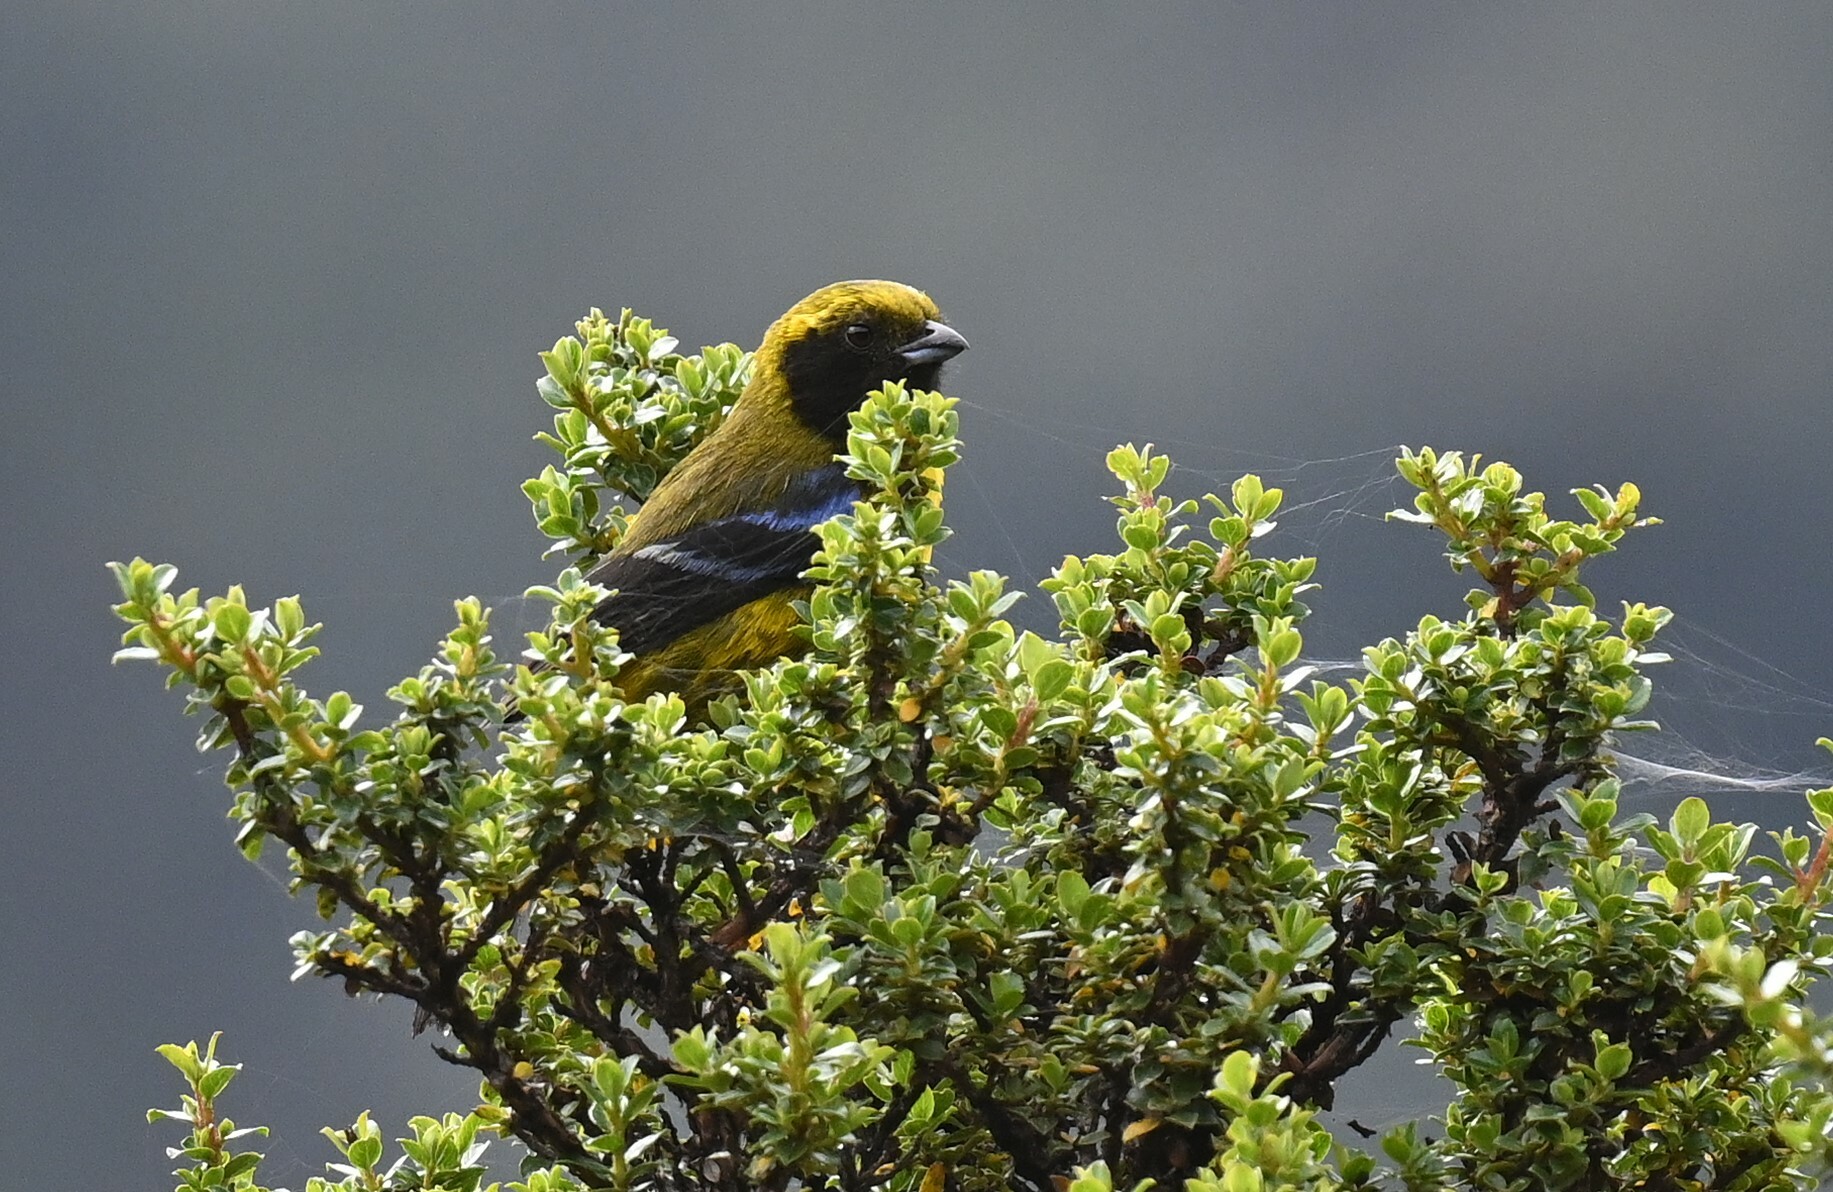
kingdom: Animalia
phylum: Chordata
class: Aves
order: Passeriformes
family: Thraupidae
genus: Tephrophilus
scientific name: Tephrophilus wetmorei
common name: Masked mountain tanager
